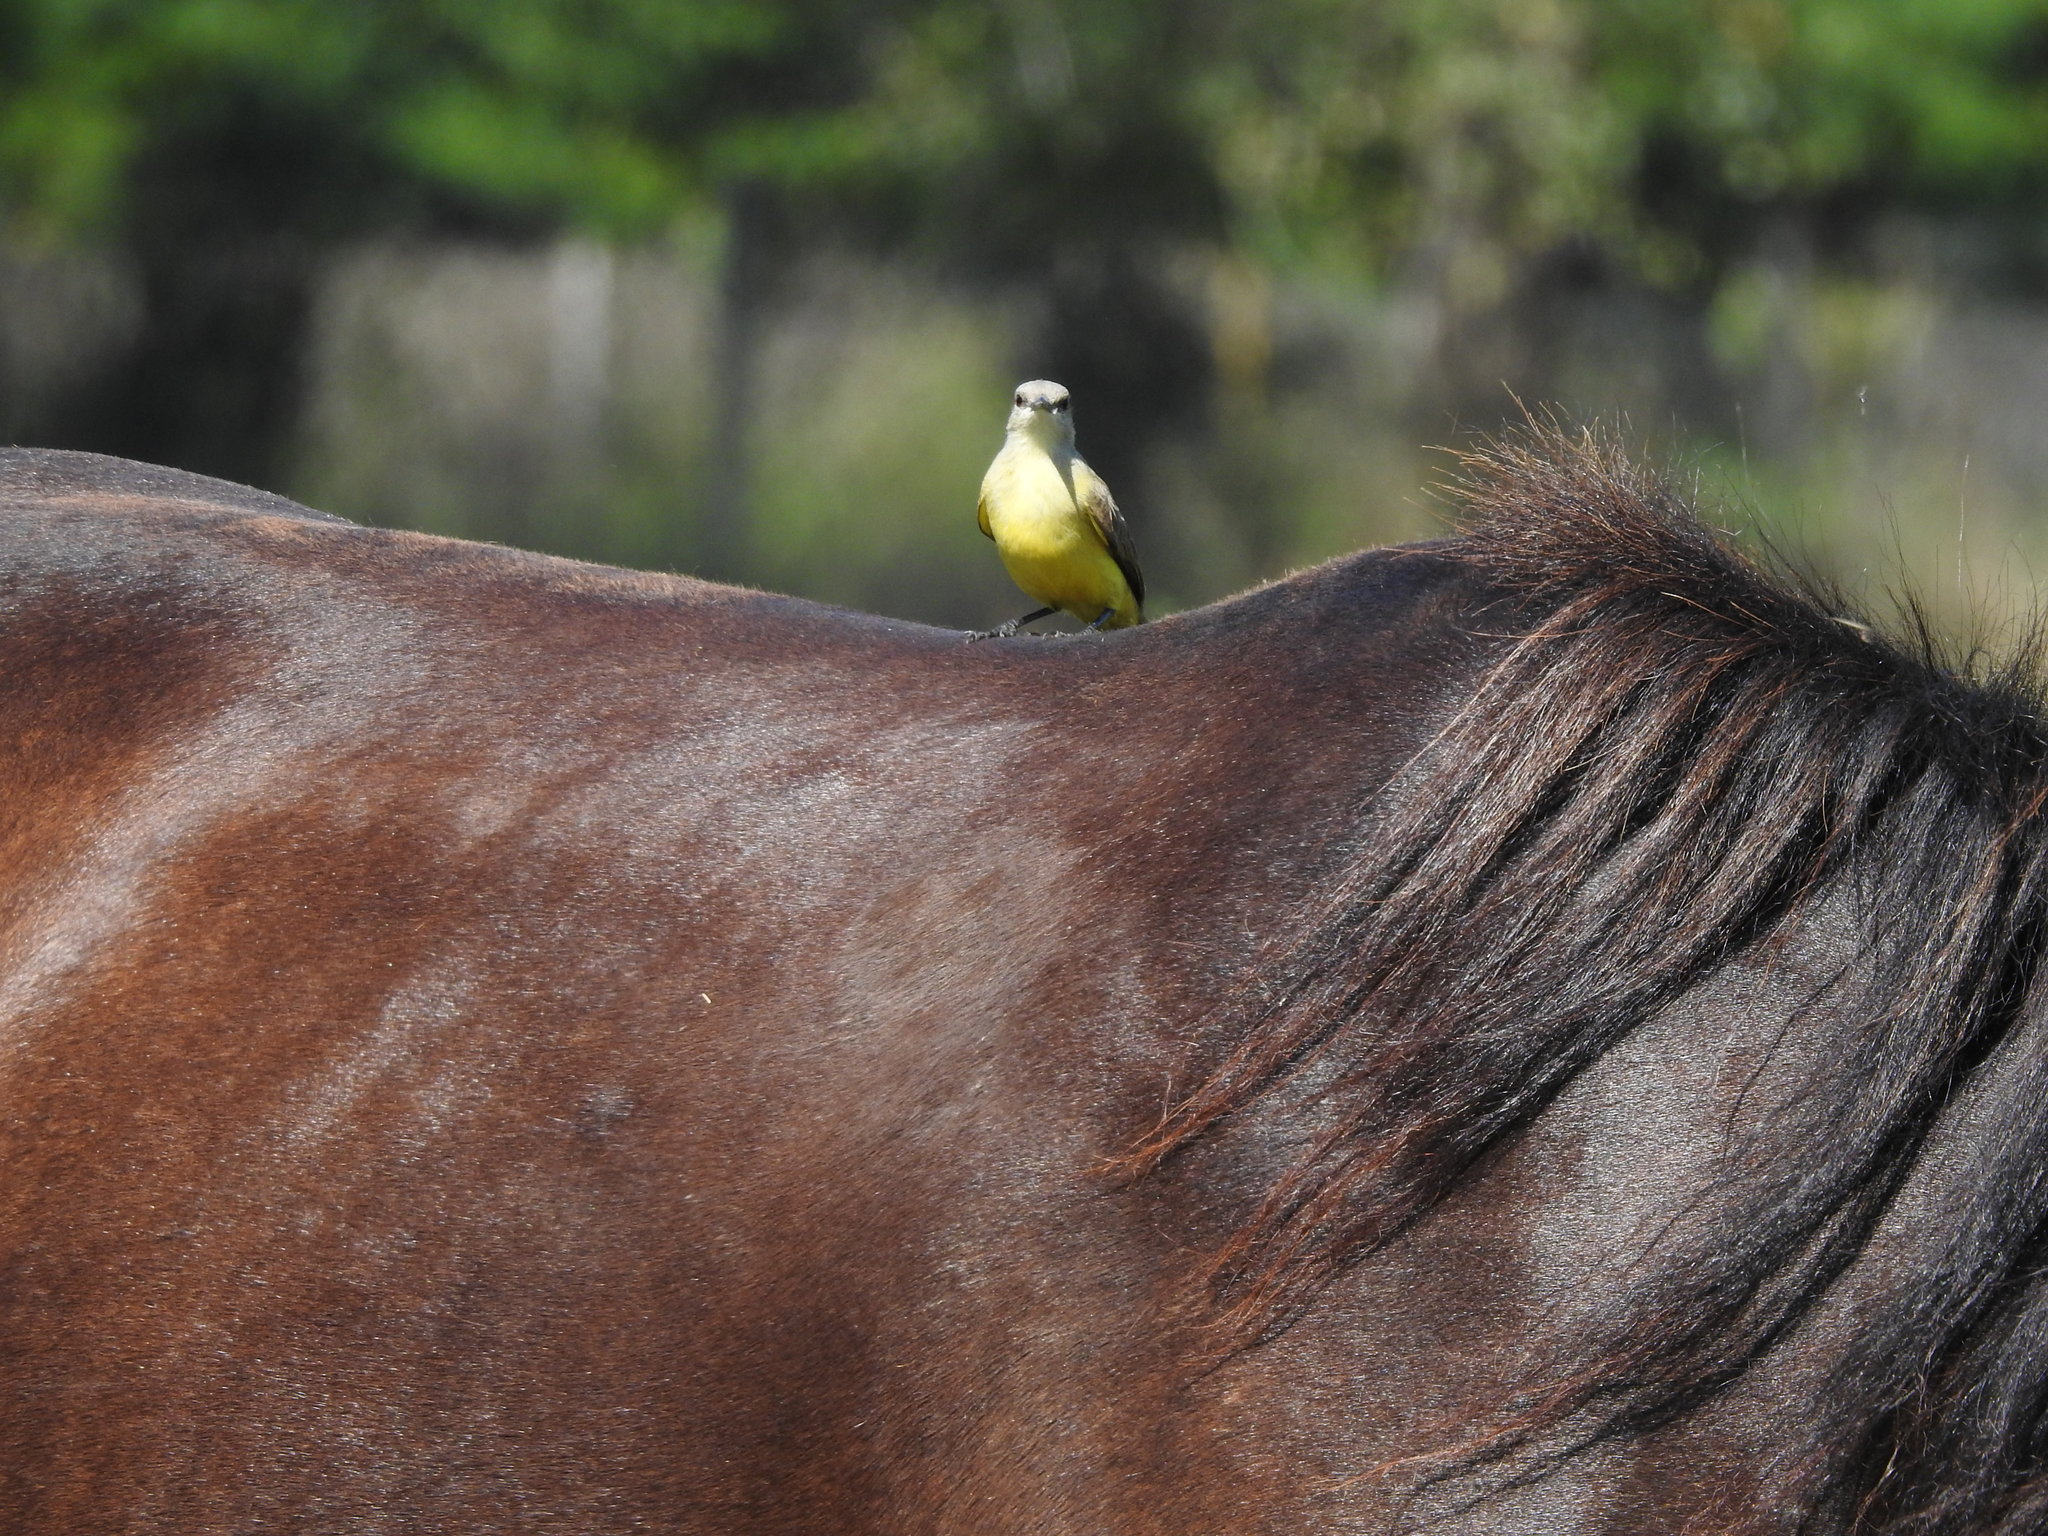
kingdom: Animalia
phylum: Chordata
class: Aves
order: Passeriformes
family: Tyrannidae
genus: Machetornis
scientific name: Machetornis rixosa
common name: Cattle tyrant
